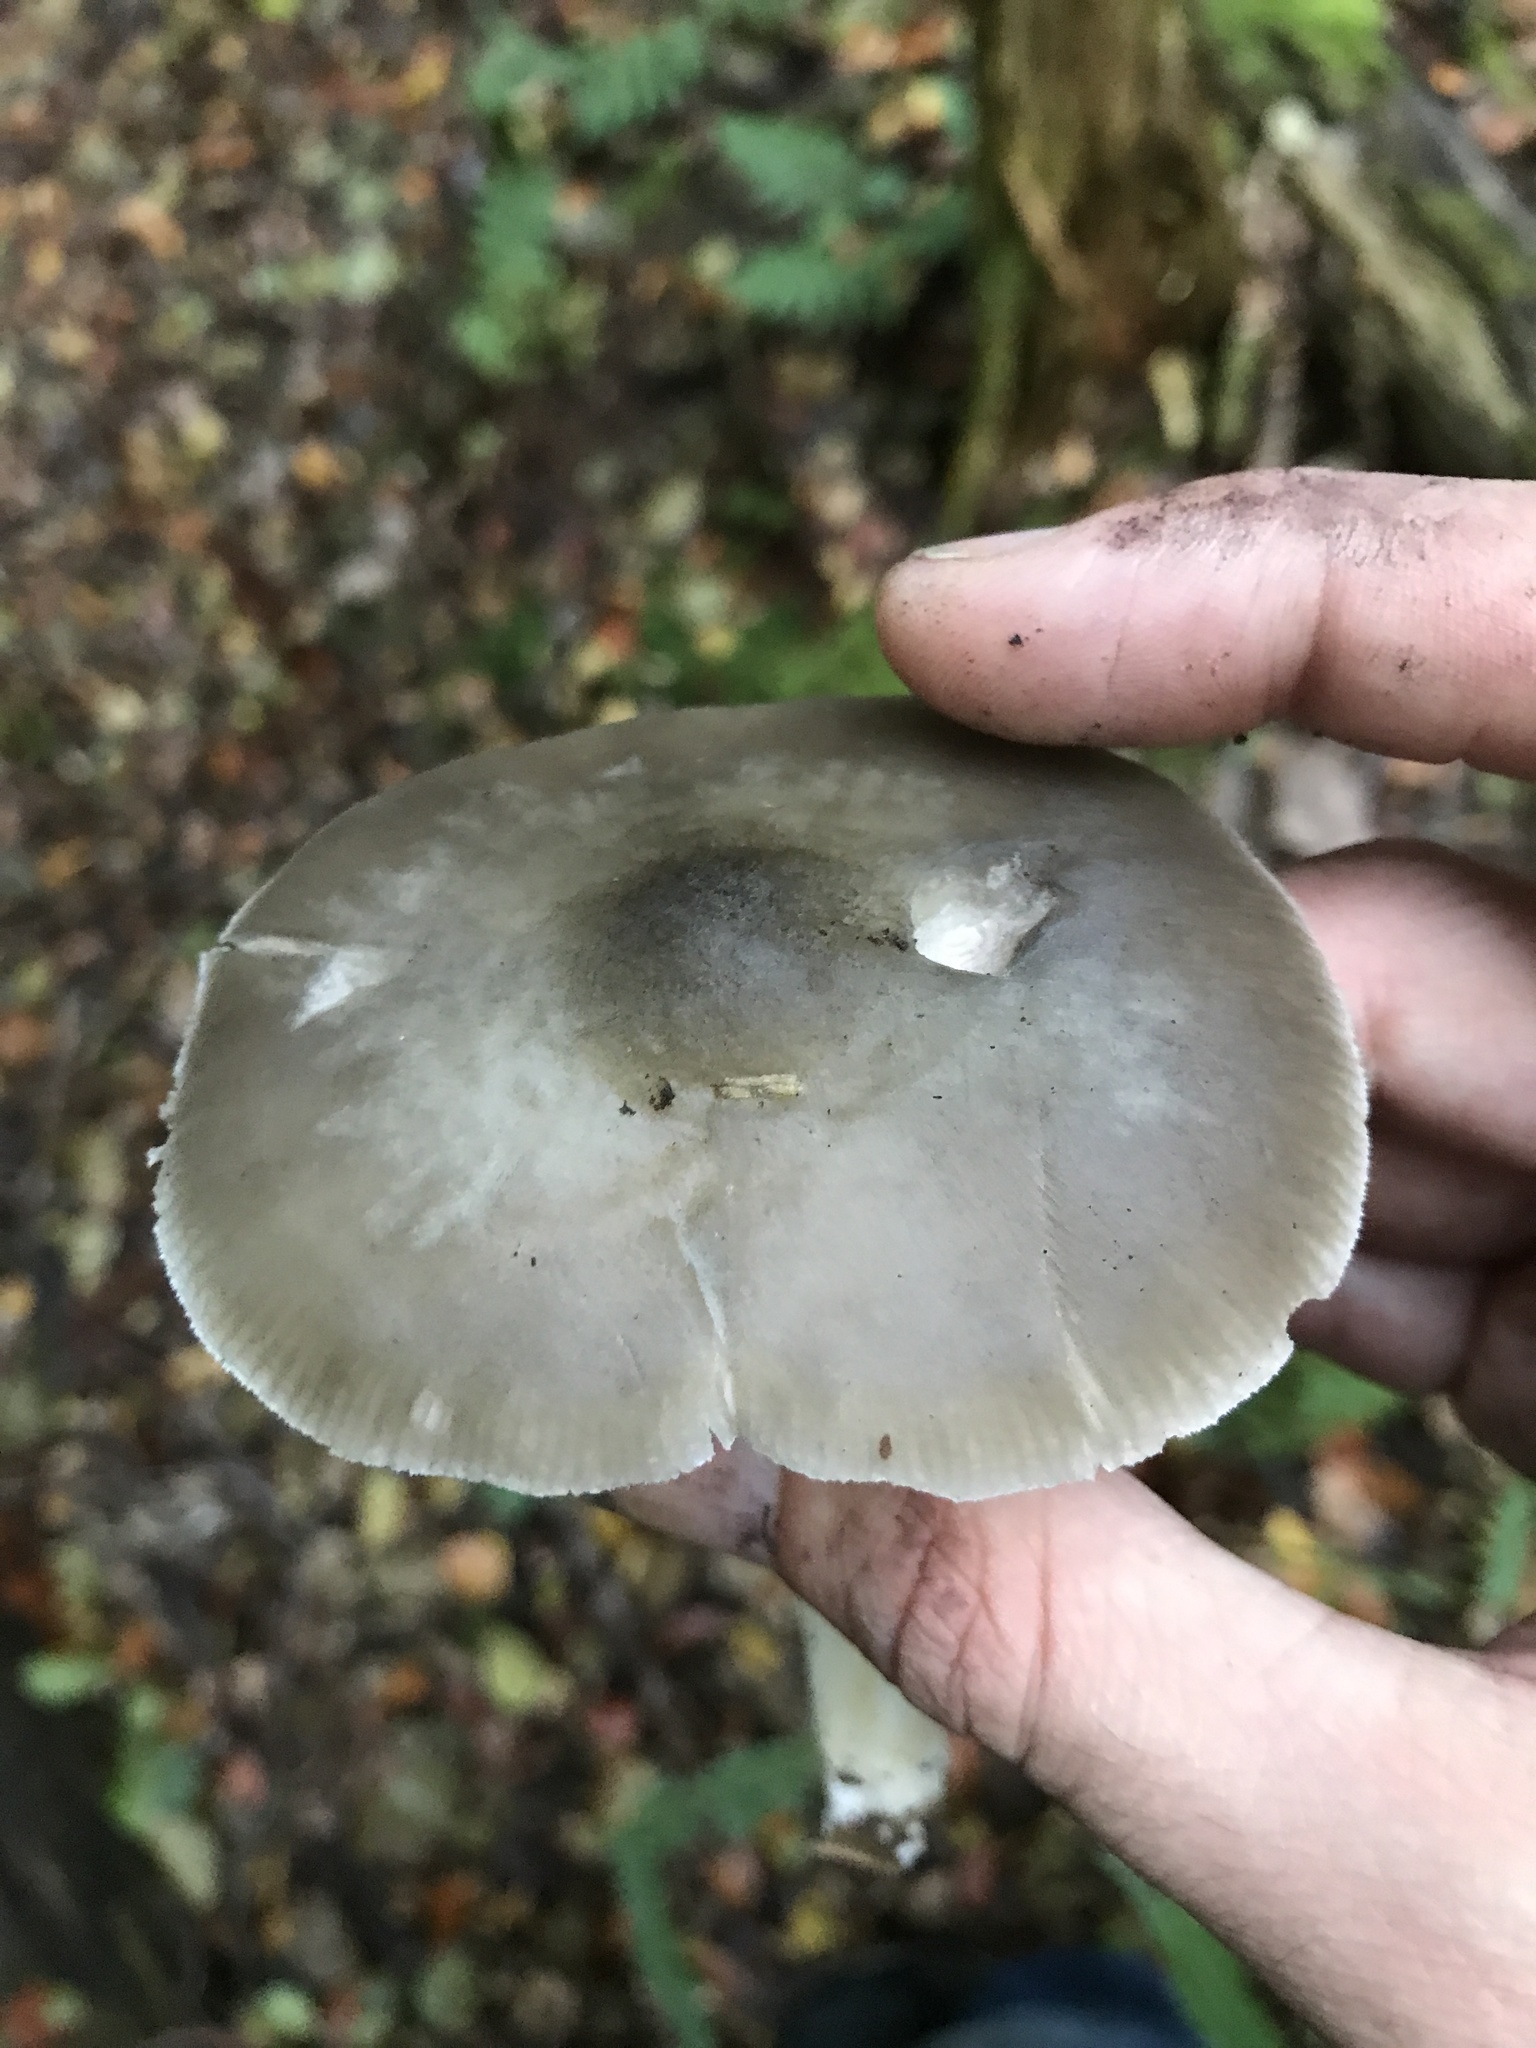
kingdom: Fungi
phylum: Basidiomycota
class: Agaricomycetes
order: Agaricales
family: Pluteaceae
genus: Pluteus
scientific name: Pluteus salicinus
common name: Willow shield
